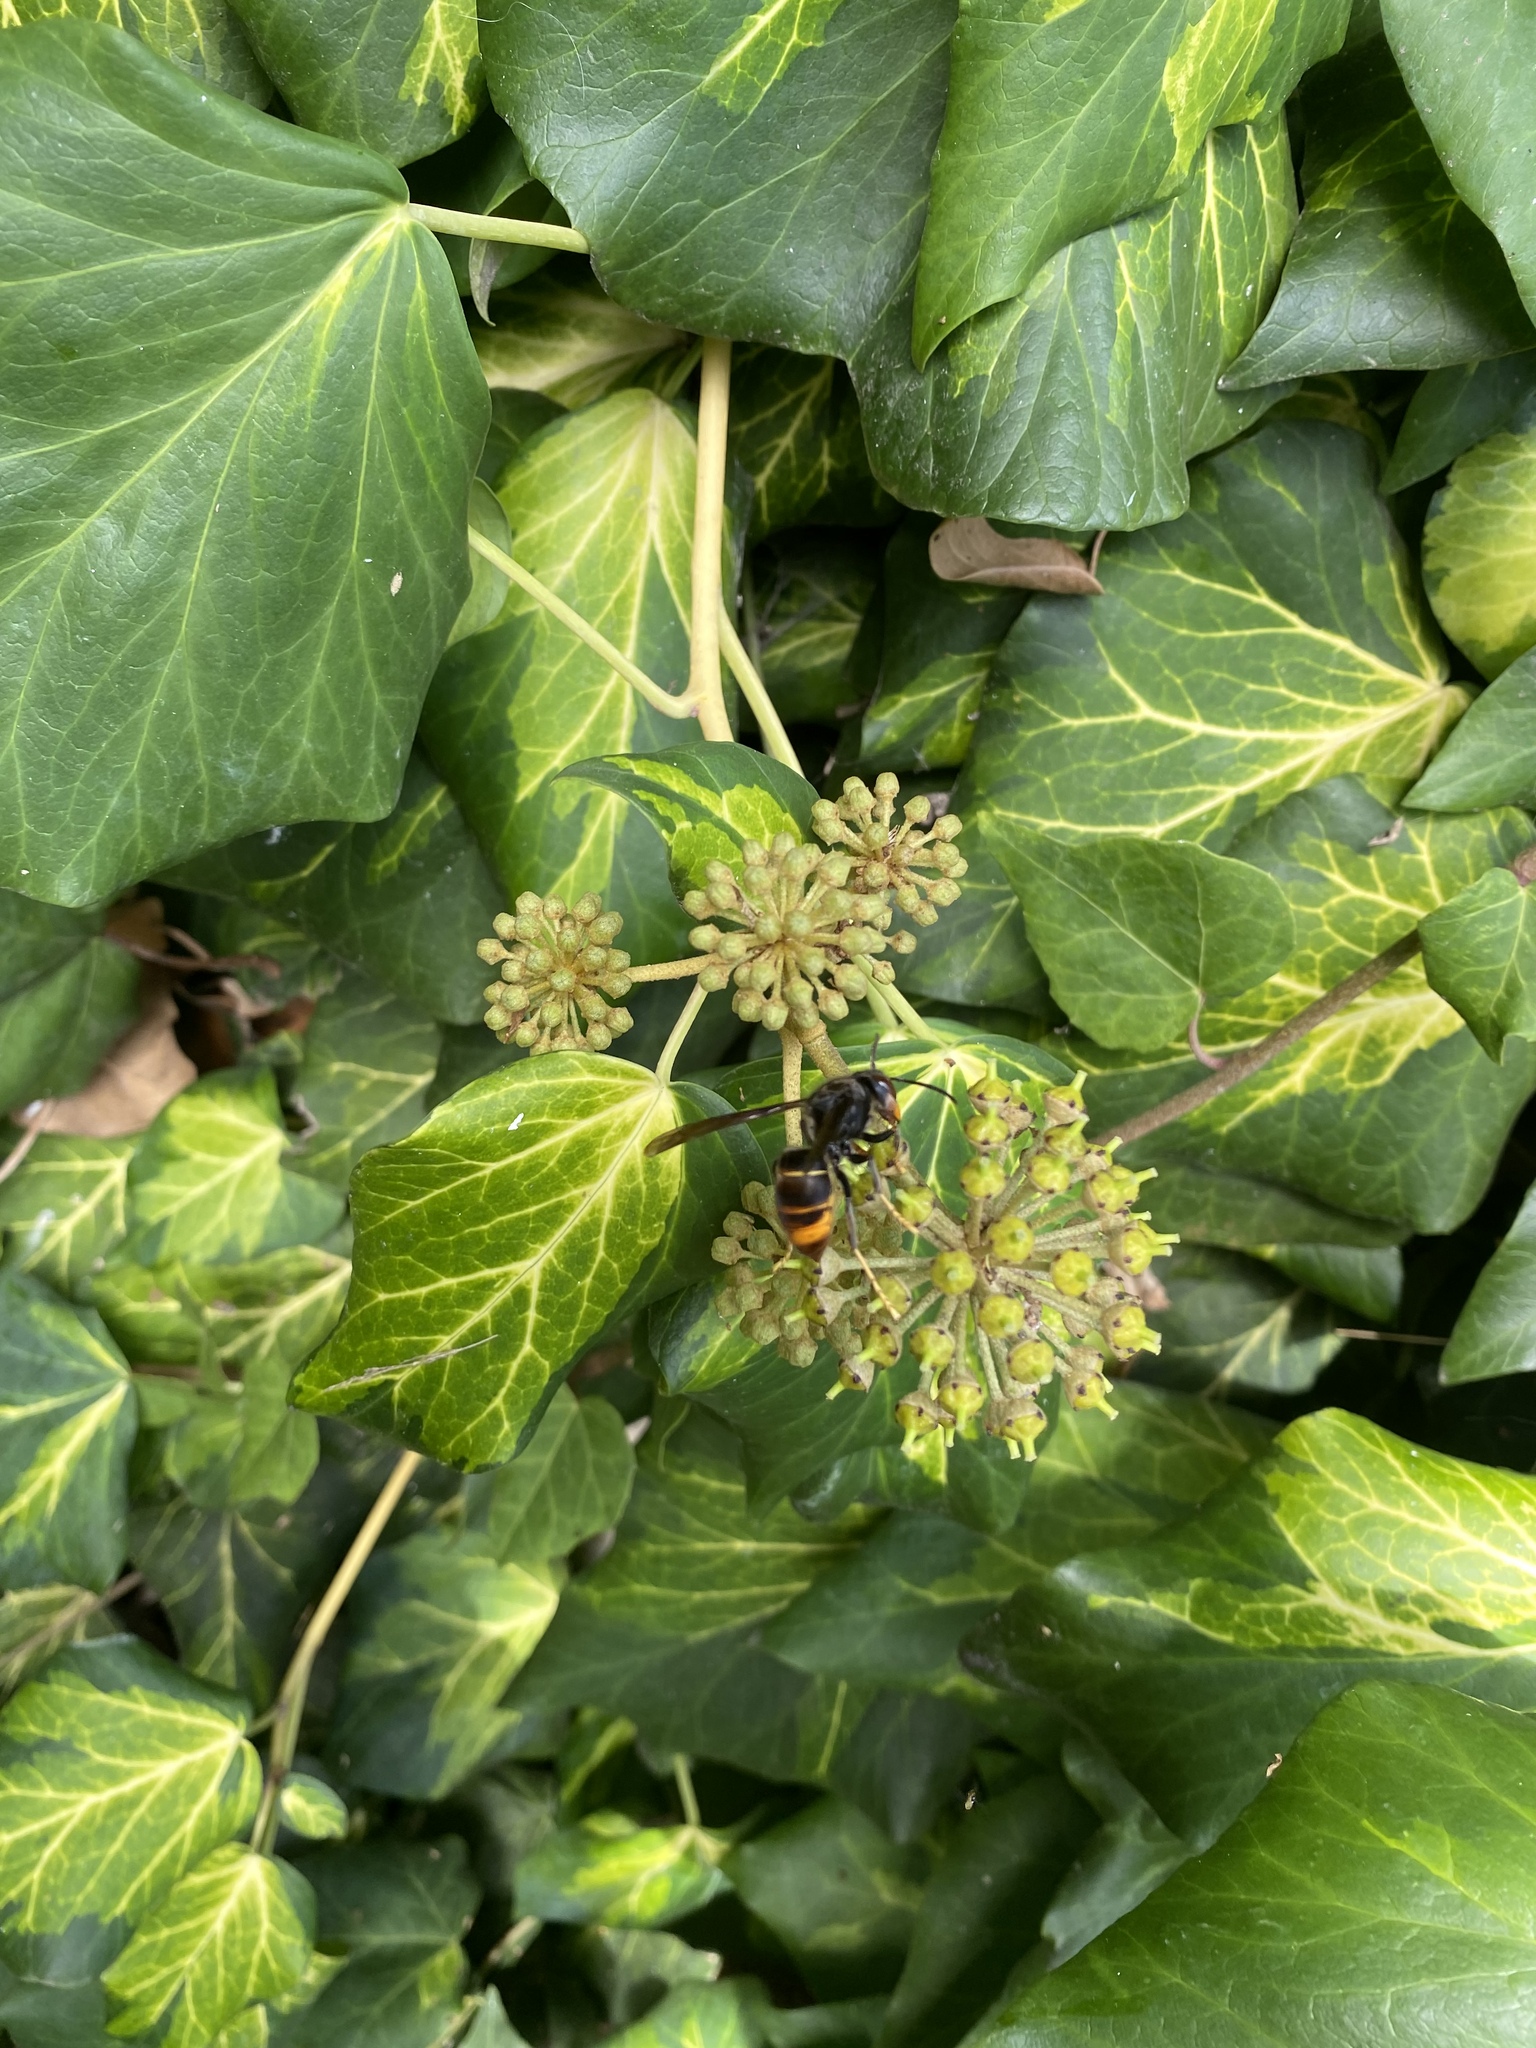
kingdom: Animalia
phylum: Arthropoda
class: Insecta
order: Hymenoptera
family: Vespidae
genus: Vespa
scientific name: Vespa velutina
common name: Asian hornet
